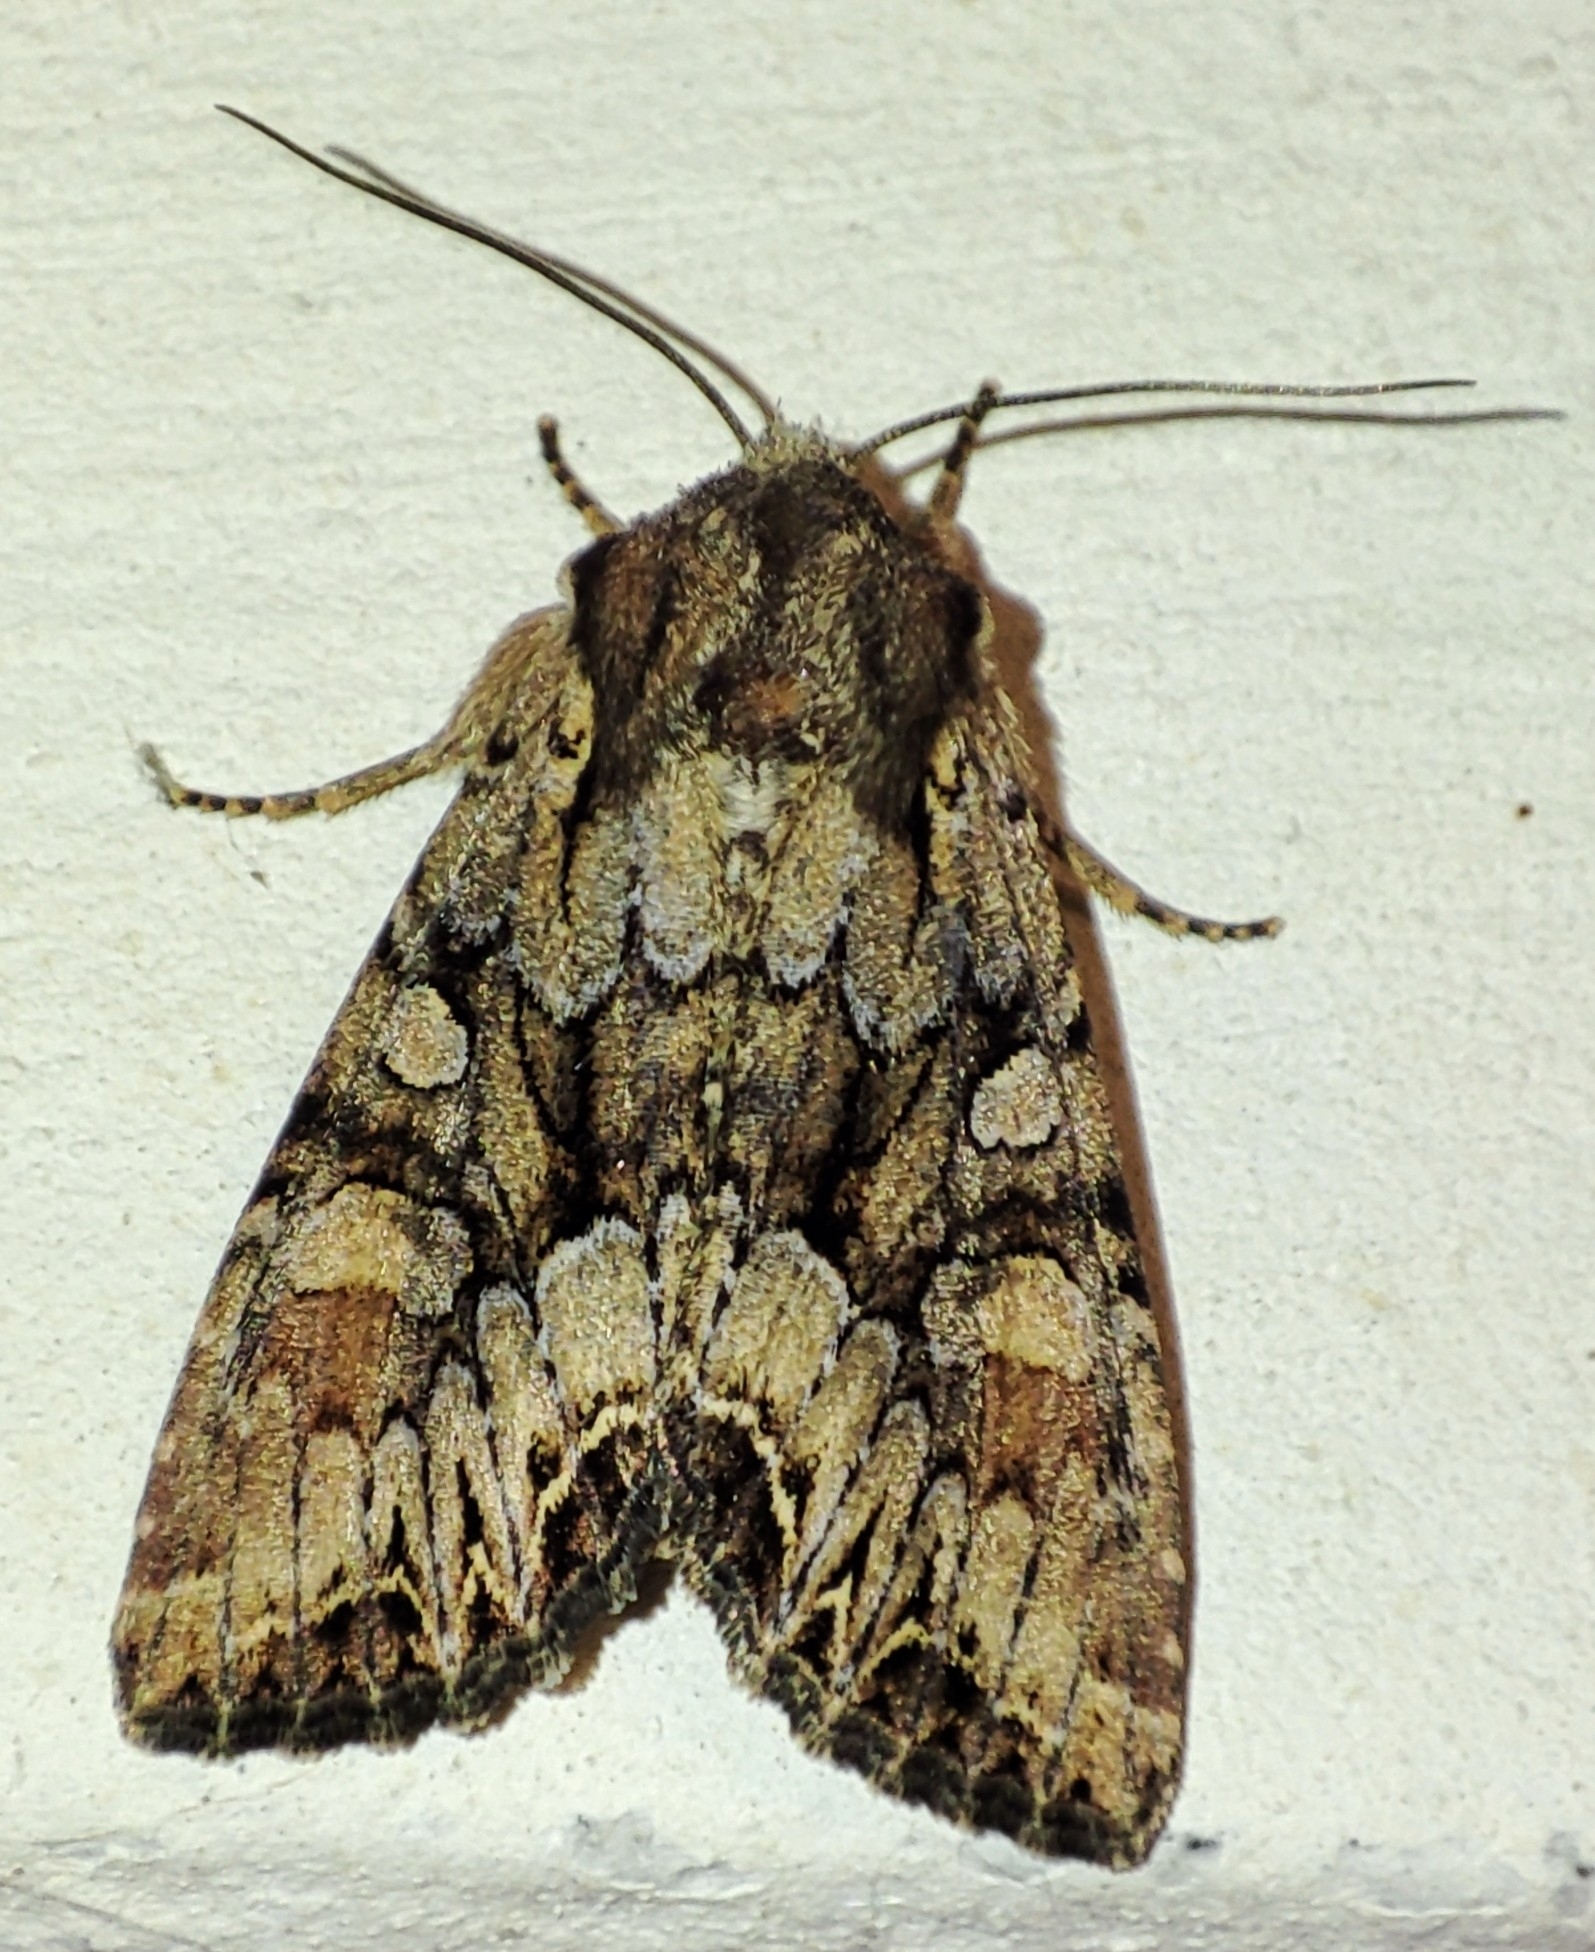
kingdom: Animalia
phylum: Arthropoda
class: Insecta
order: Lepidoptera
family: Noctuidae
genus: Lacanobia
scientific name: Lacanobia thalassina
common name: Pale-shouldered brocade
